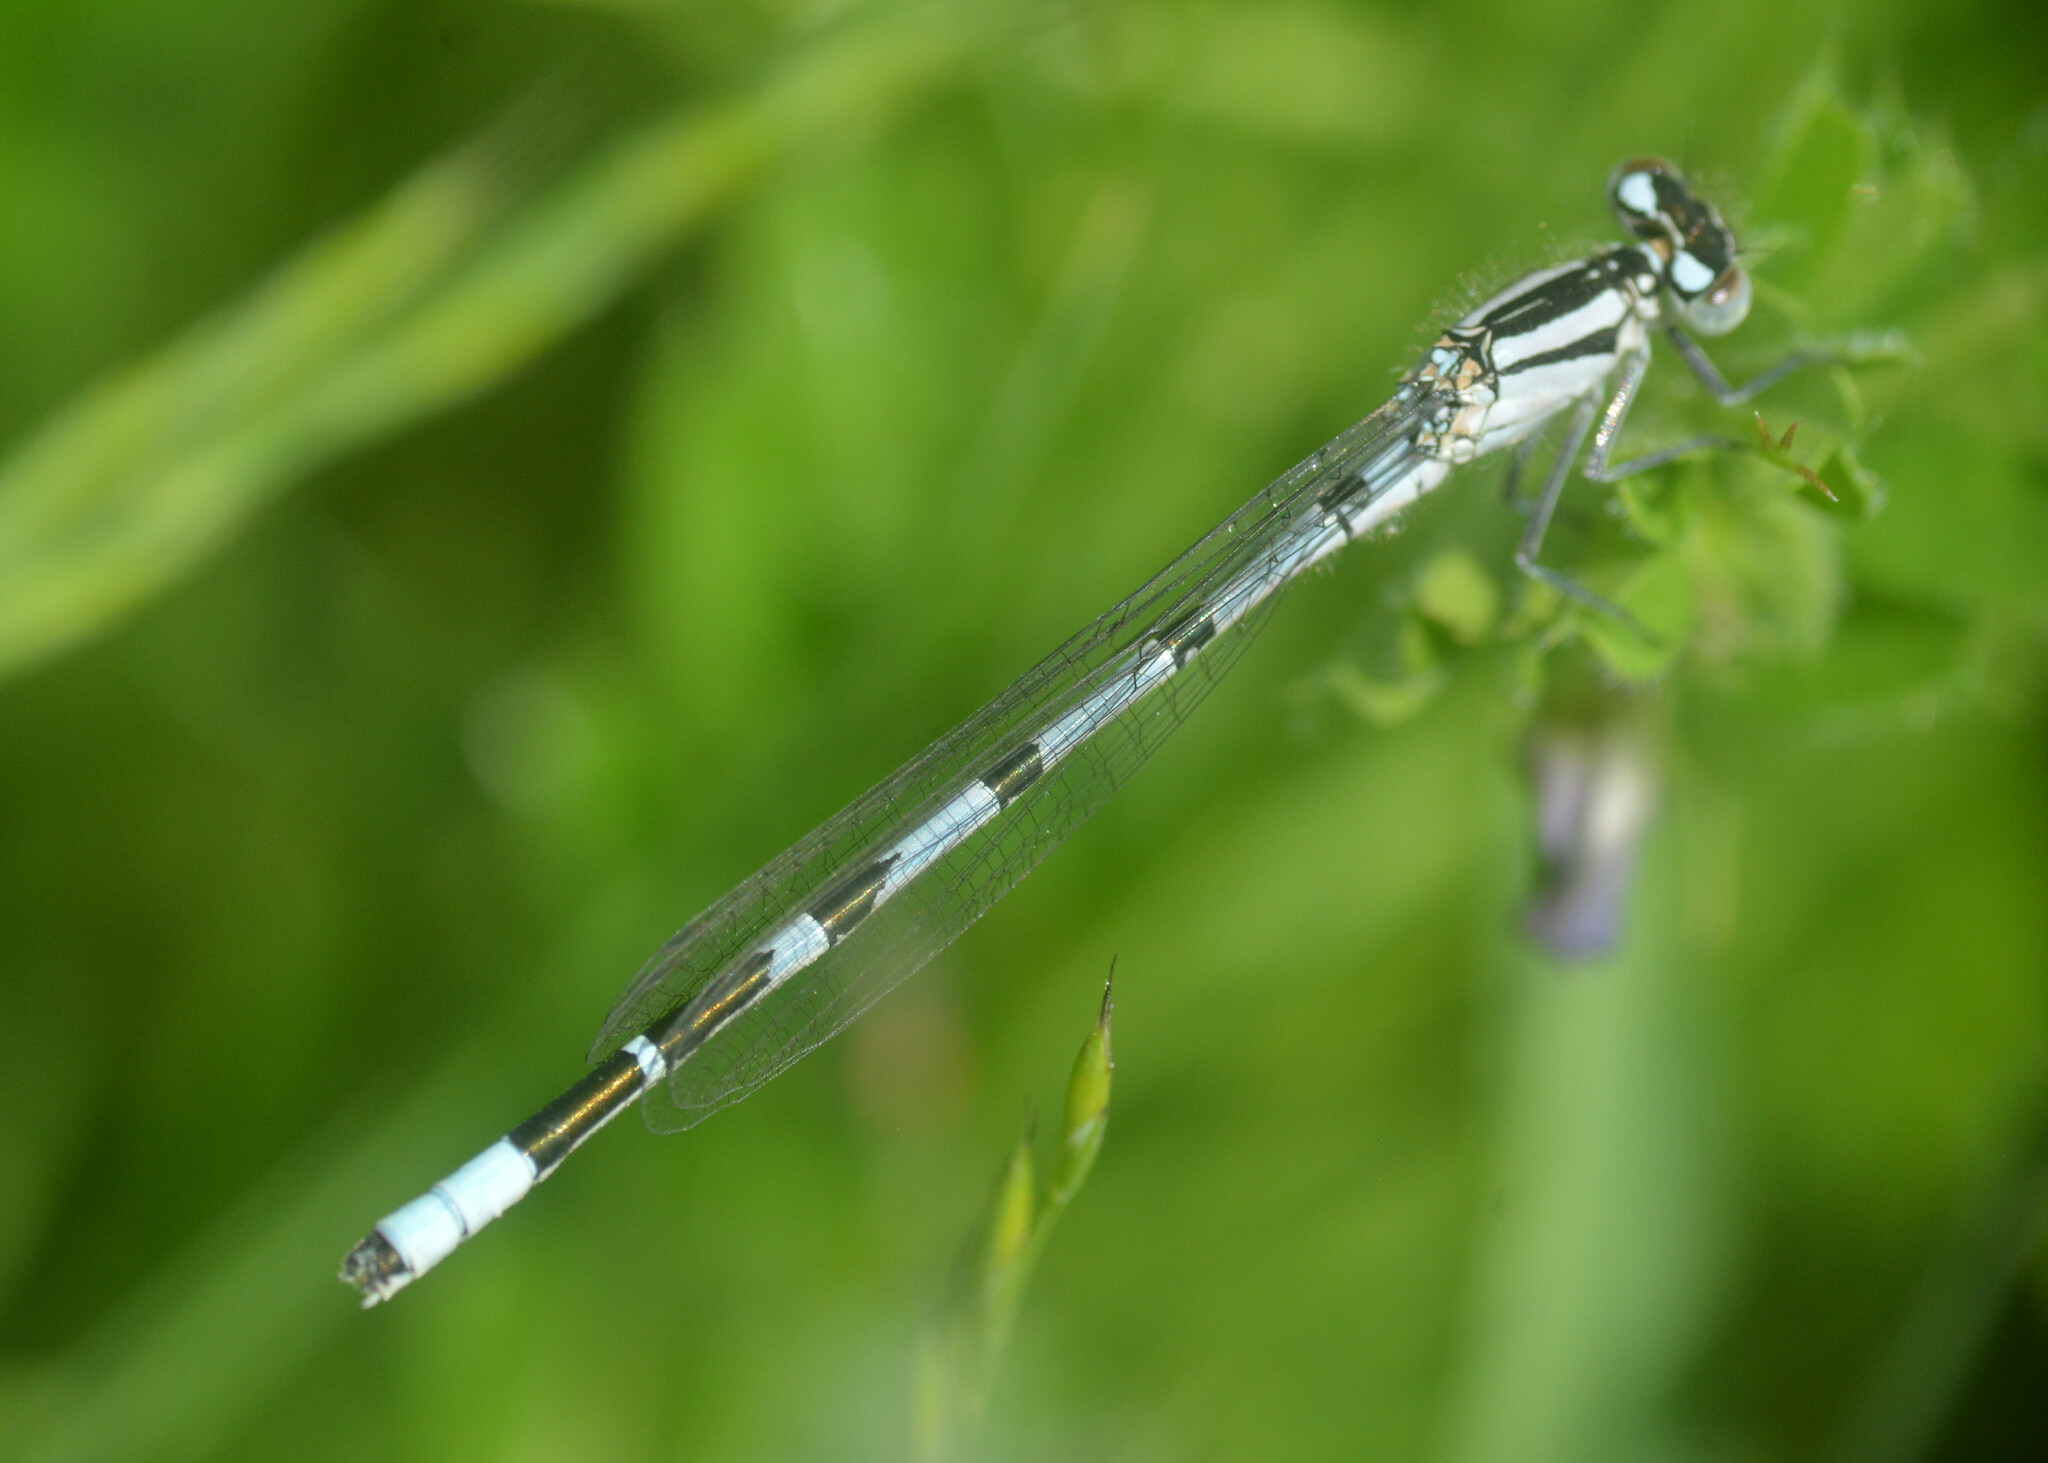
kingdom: Animalia
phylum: Arthropoda
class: Insecta
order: Odonata
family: Coenagrionidae
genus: Enallagma
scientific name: Enallagma cyathigerum
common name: Common blue damselfly
